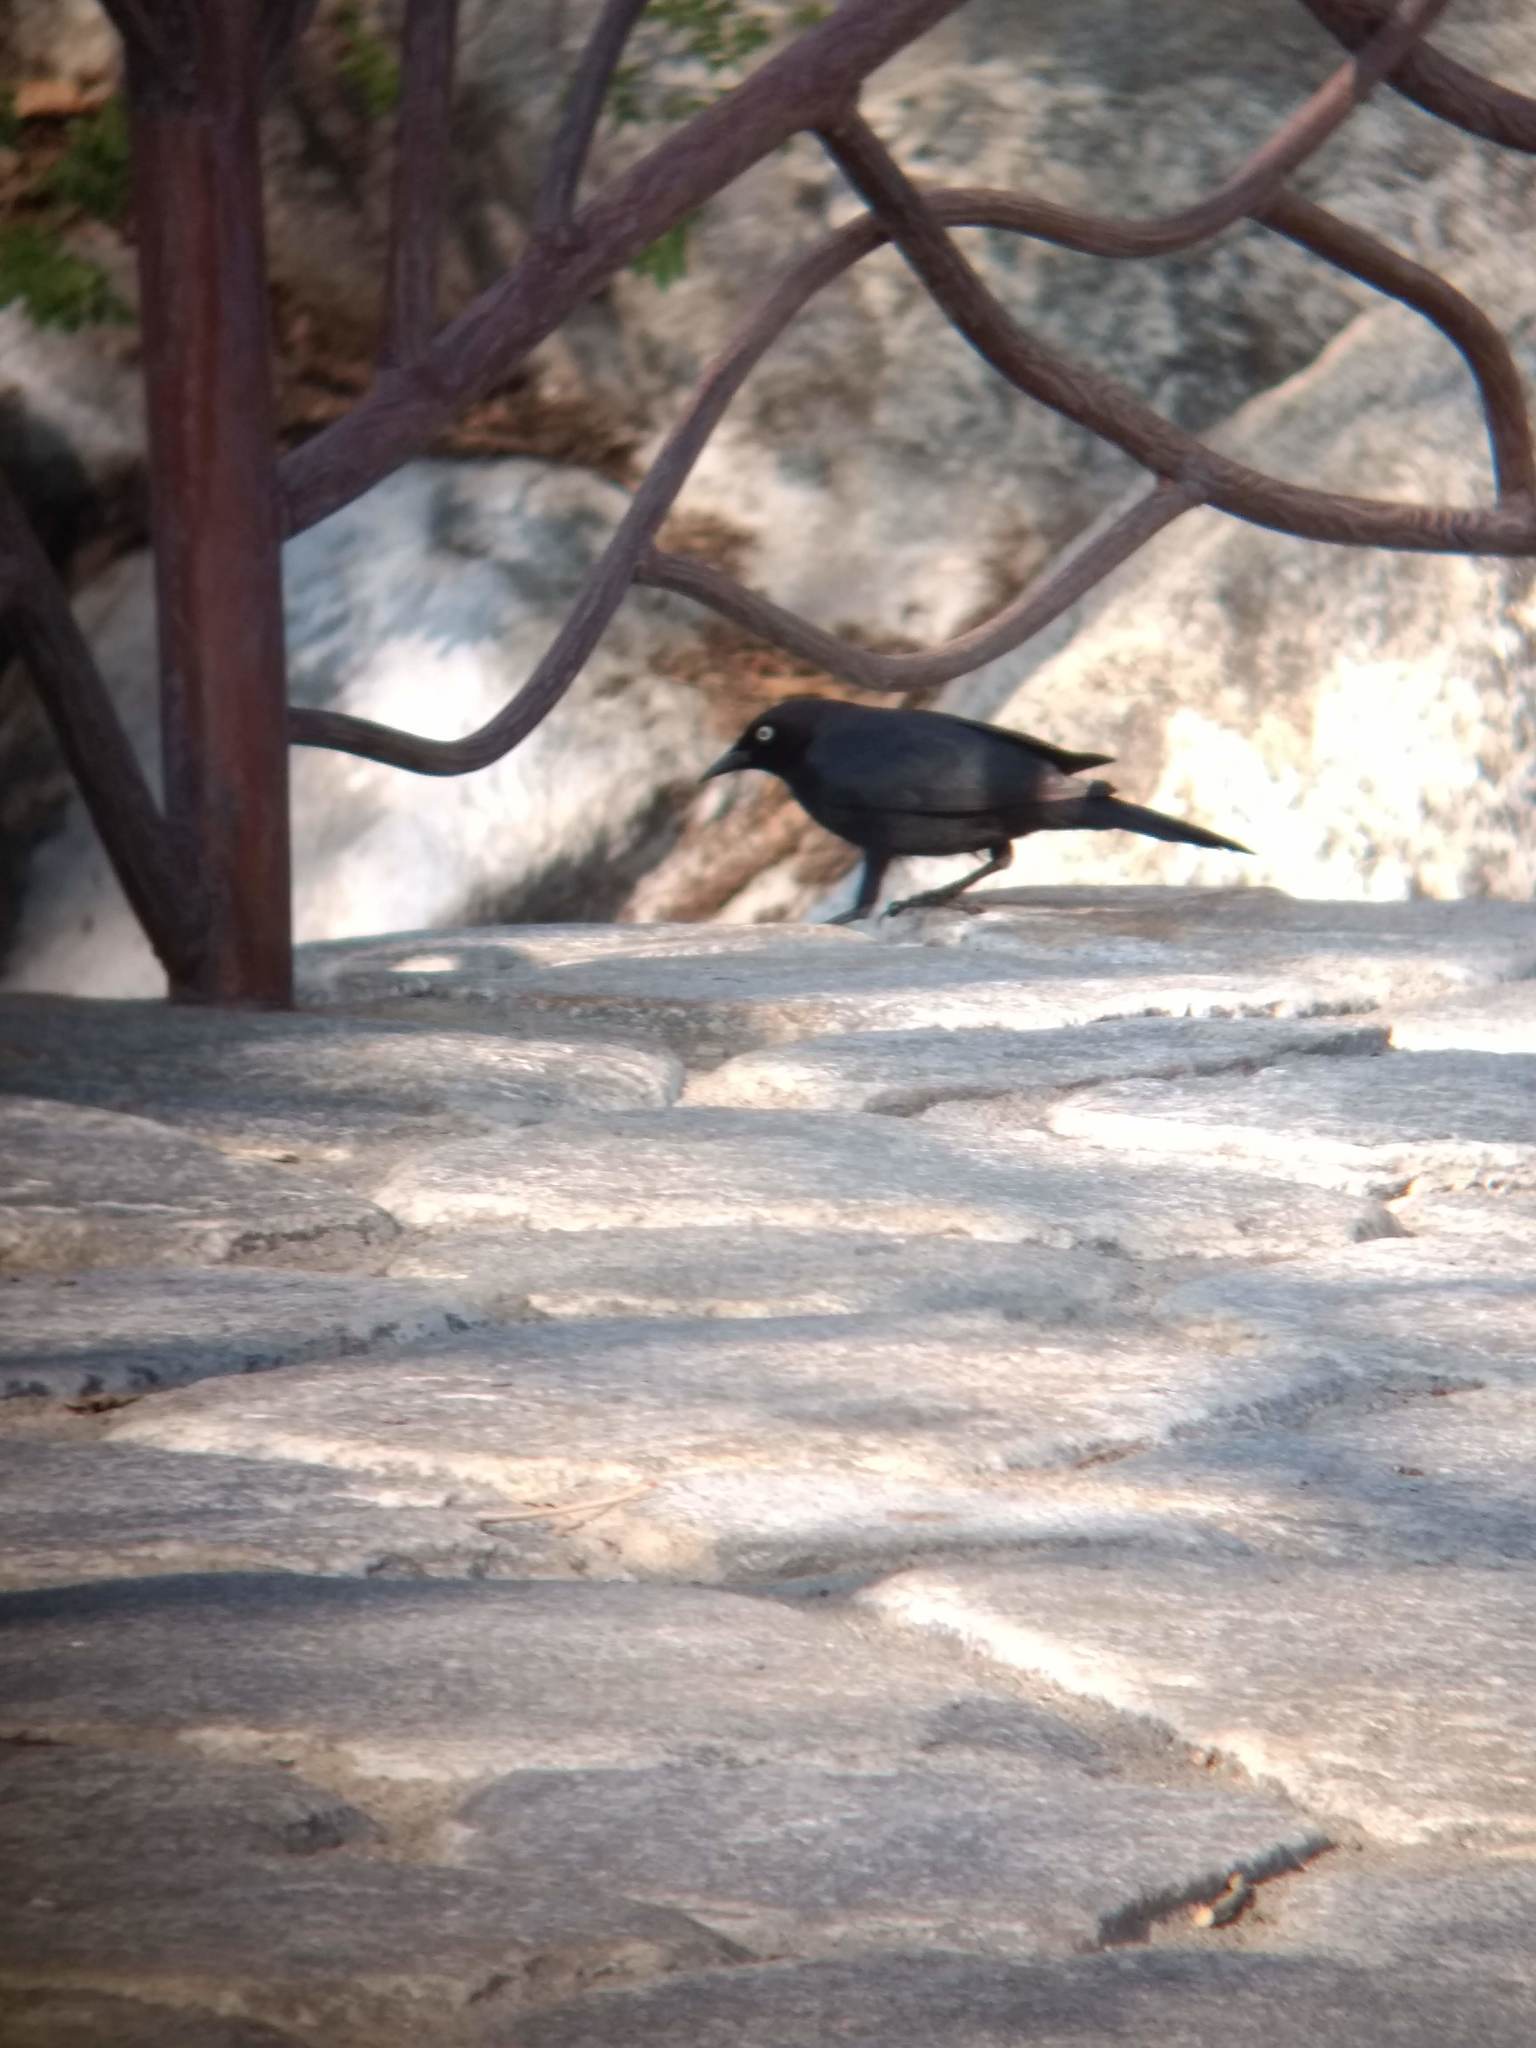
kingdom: Animalia
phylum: Chordata
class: Aves
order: Passeriformes
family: Icteridae
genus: Euphagus
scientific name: Euphagus cyanocephalus
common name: Brewer's blackbird
